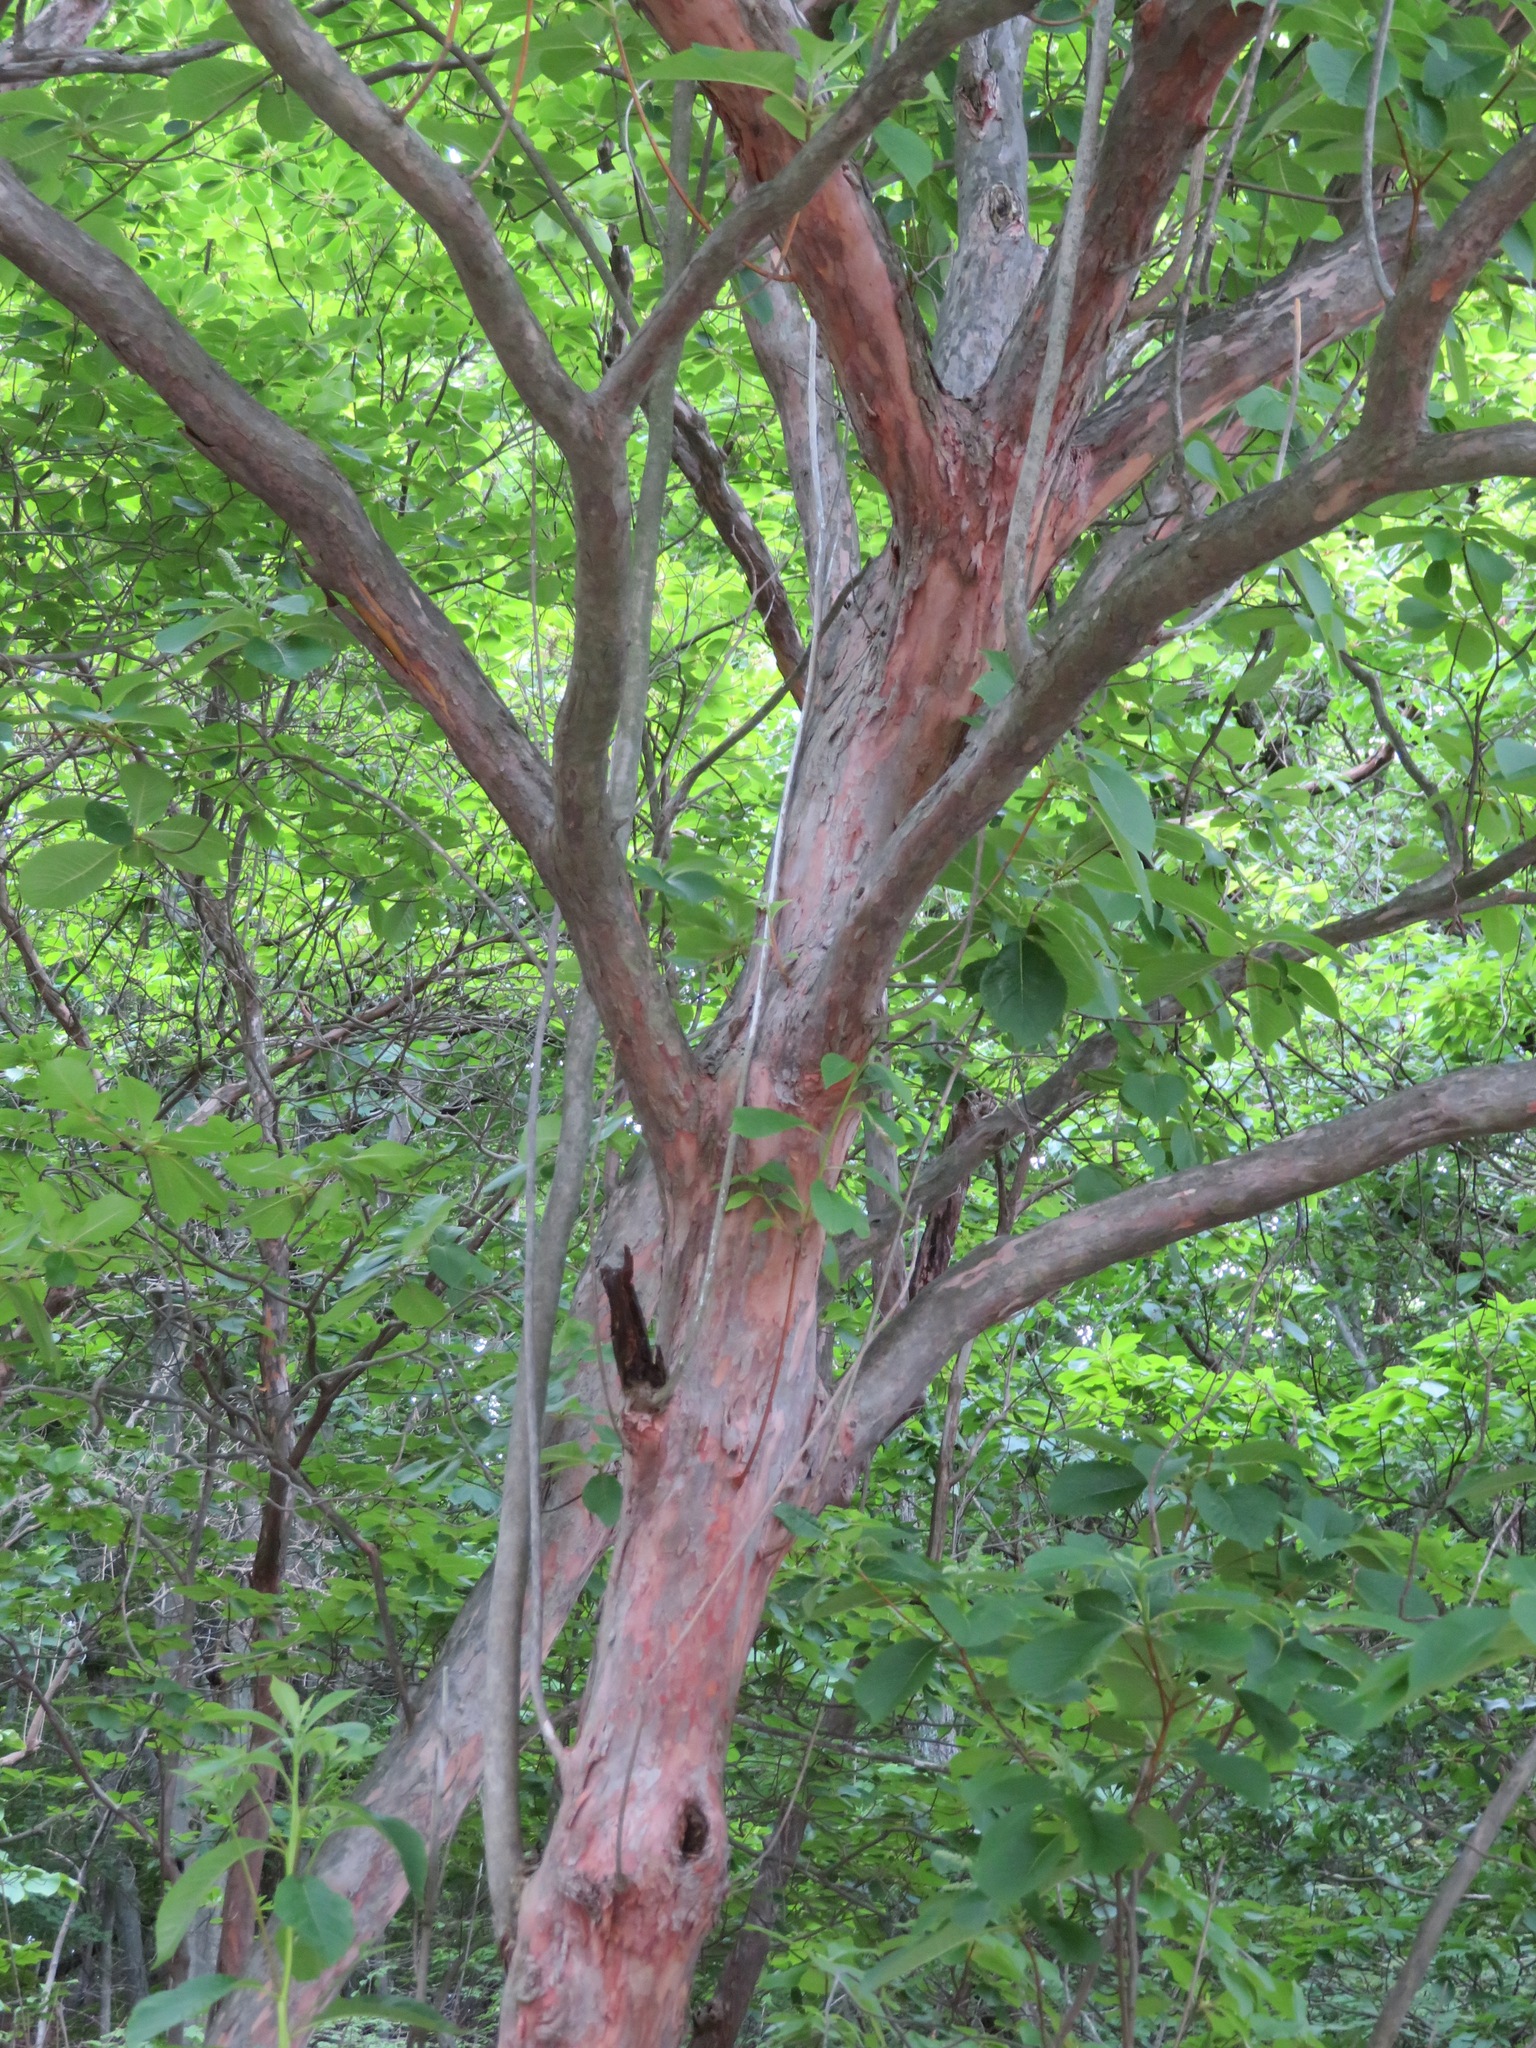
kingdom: Plantae
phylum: Tracheophyta
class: Magnoliopsida
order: Ericales
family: Clethraceae
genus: Clethra
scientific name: Clethra barbinervis
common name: Japanese clethra
